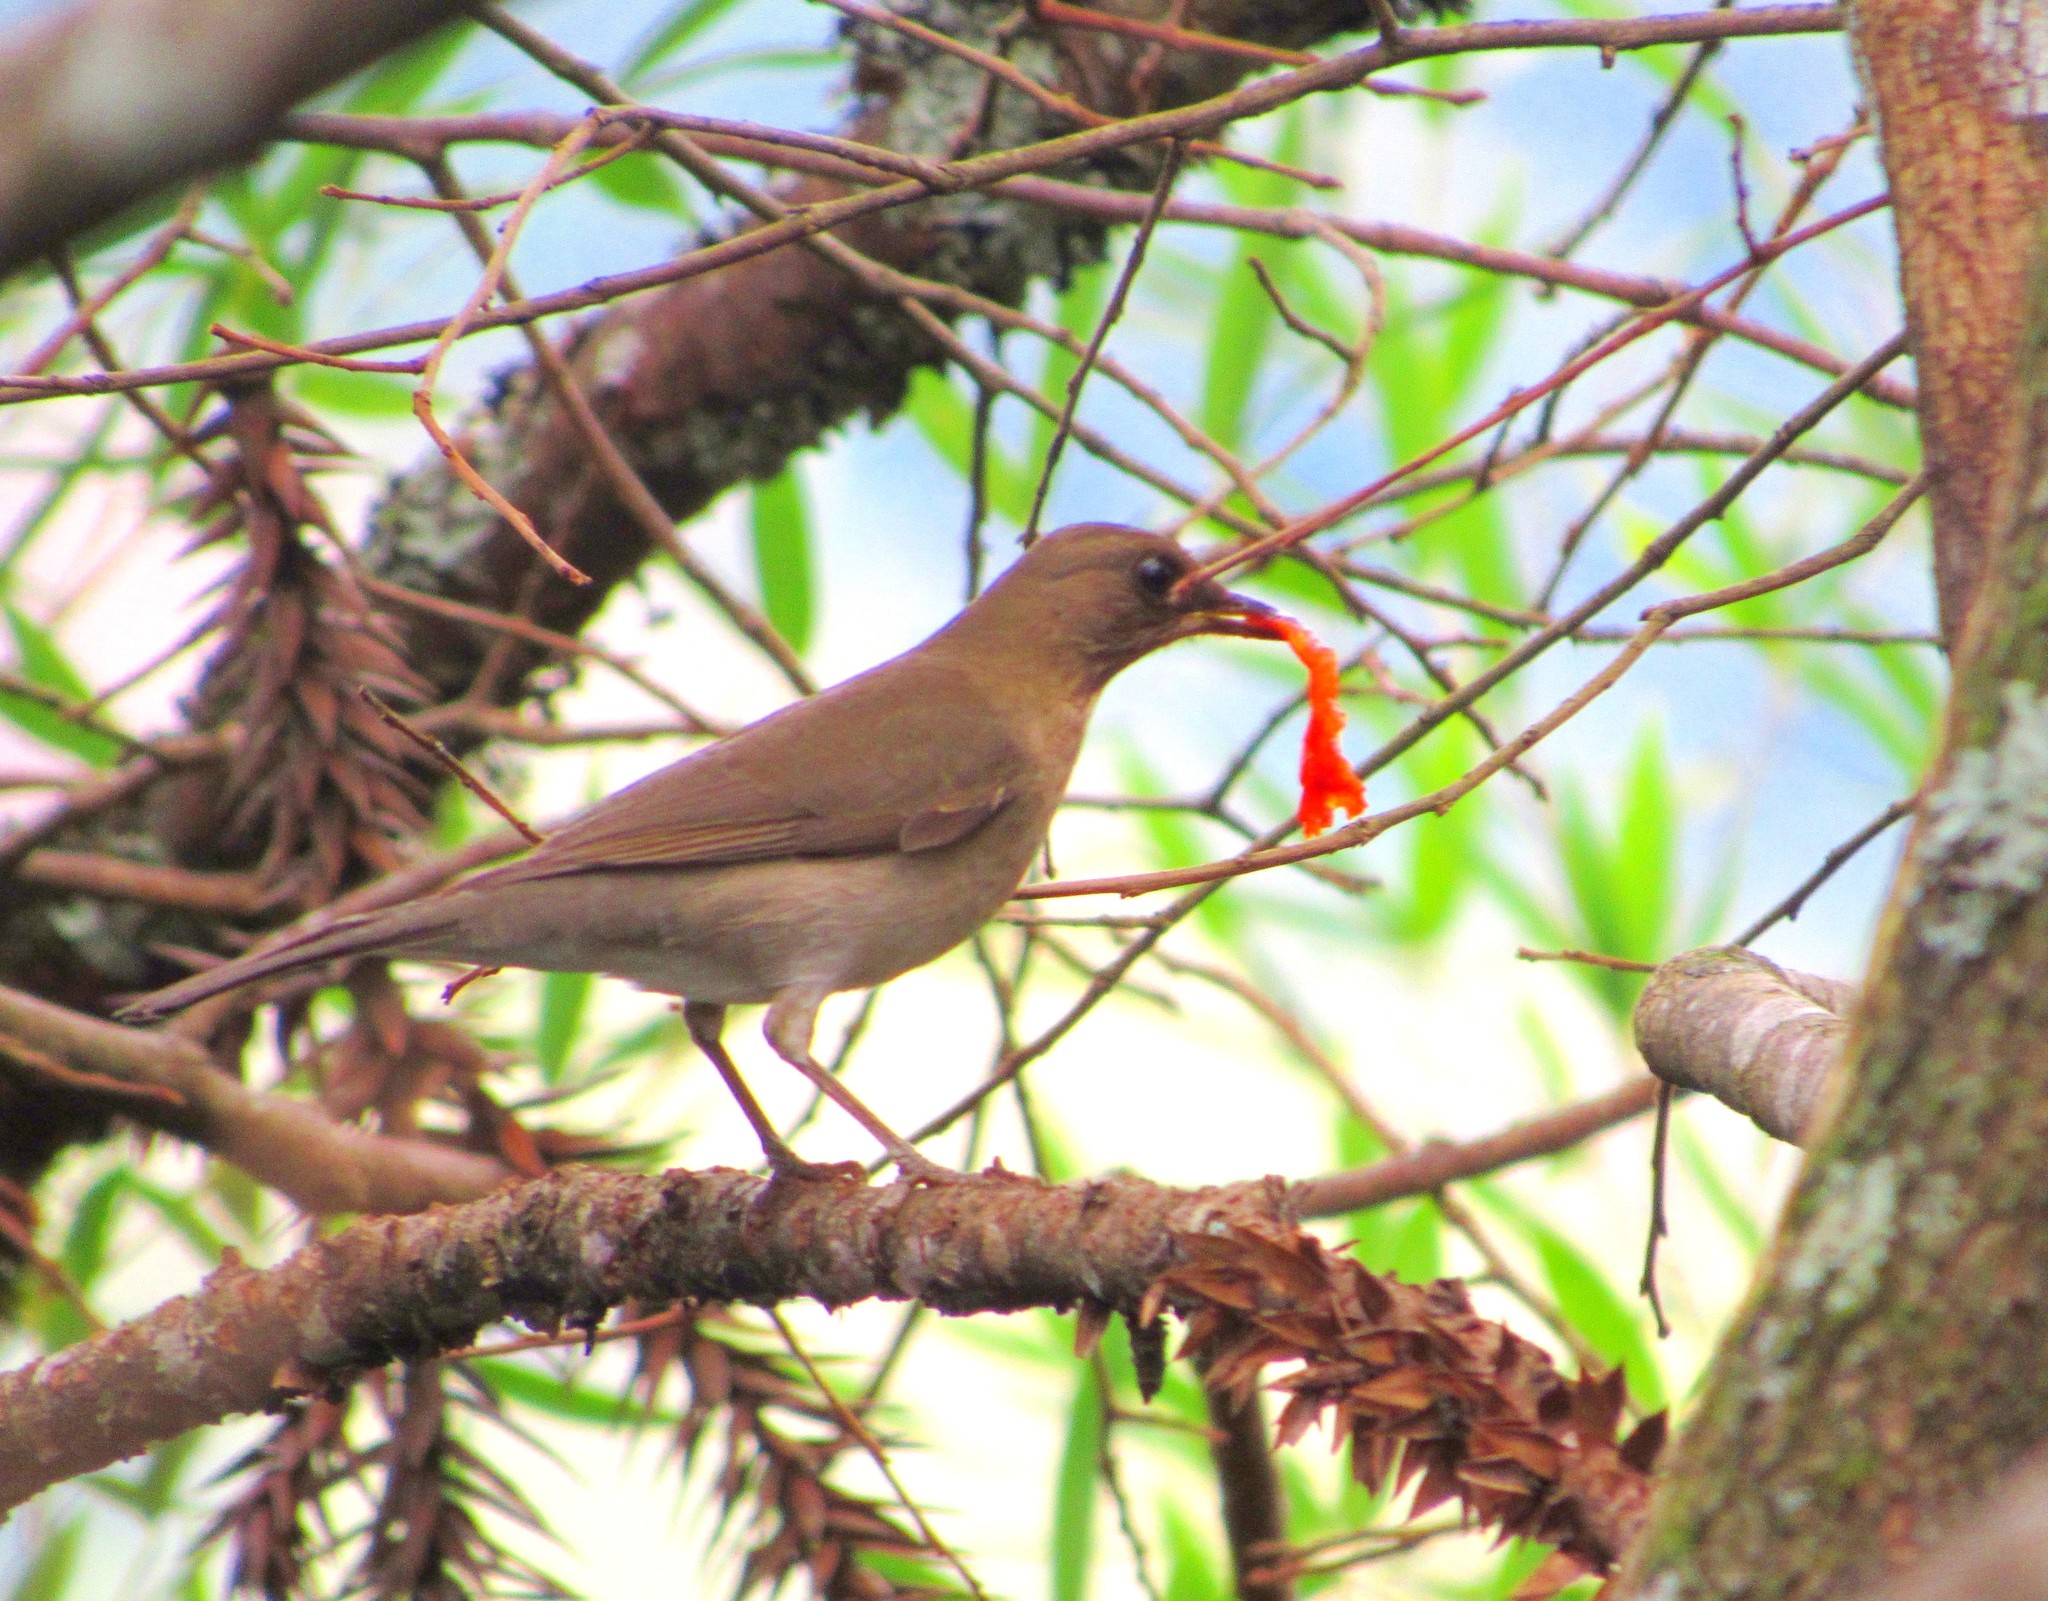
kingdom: Animalia
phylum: Chordata
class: Aves
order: Passeriformes
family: Turdidae
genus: Turdus
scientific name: Turdus amaurochalinus
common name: Creamy-bellied thrush
